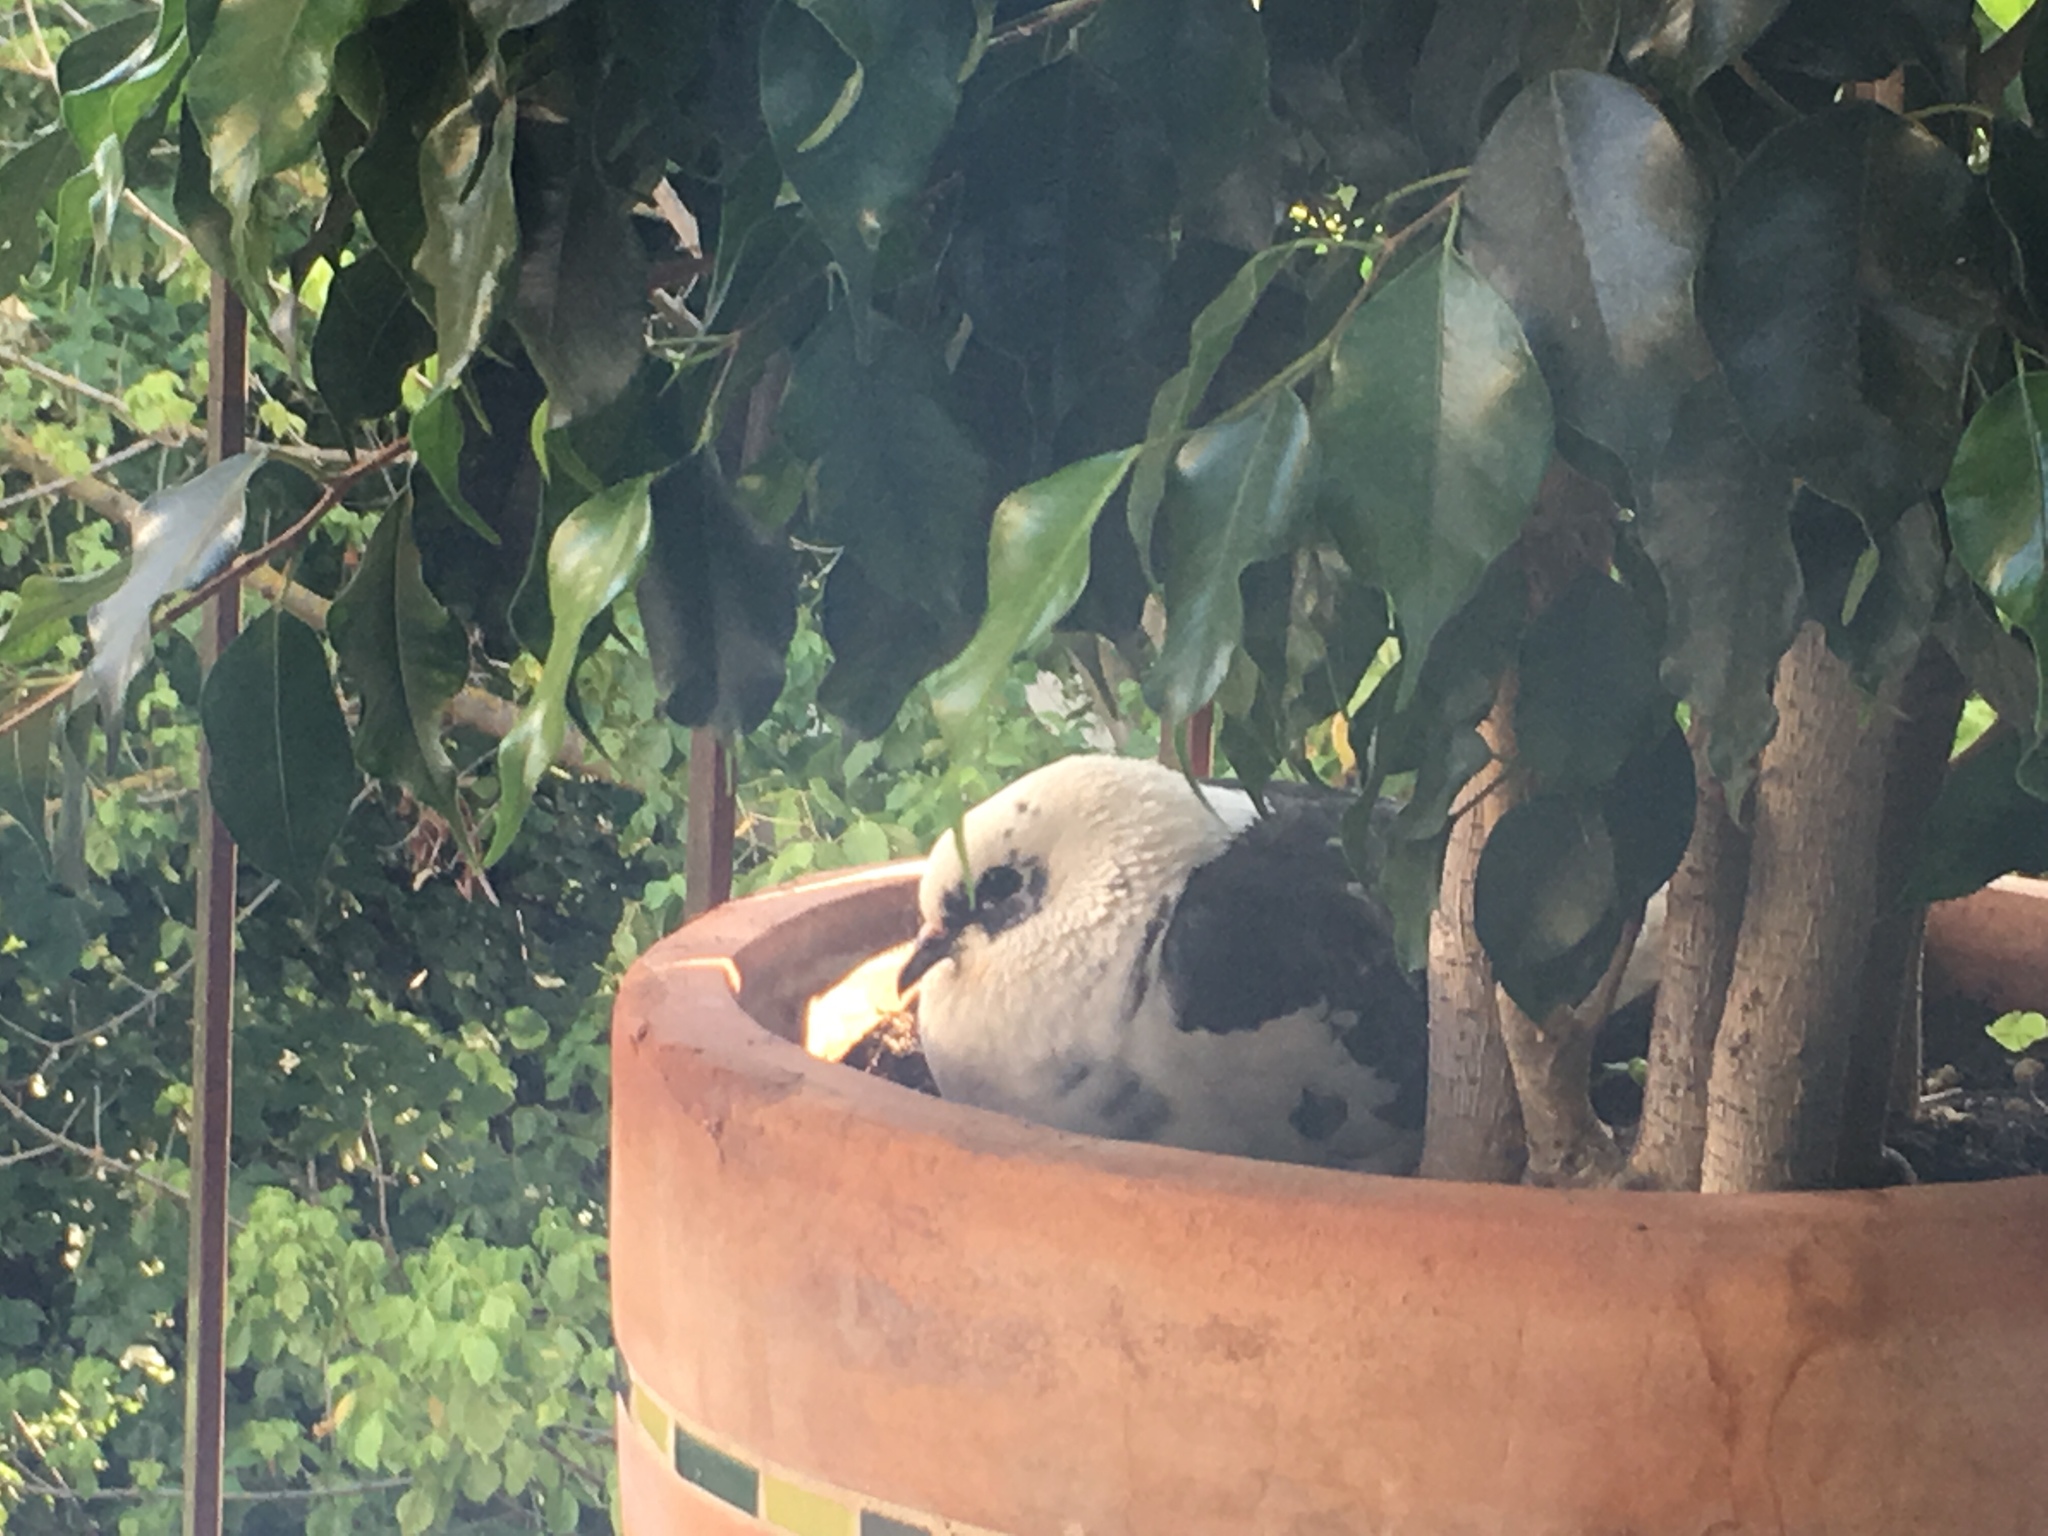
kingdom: Animalia
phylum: Chordata
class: Aves
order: Columbiformes
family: Columbidae
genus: Columba
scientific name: Columba livia
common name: Rock pigeon
